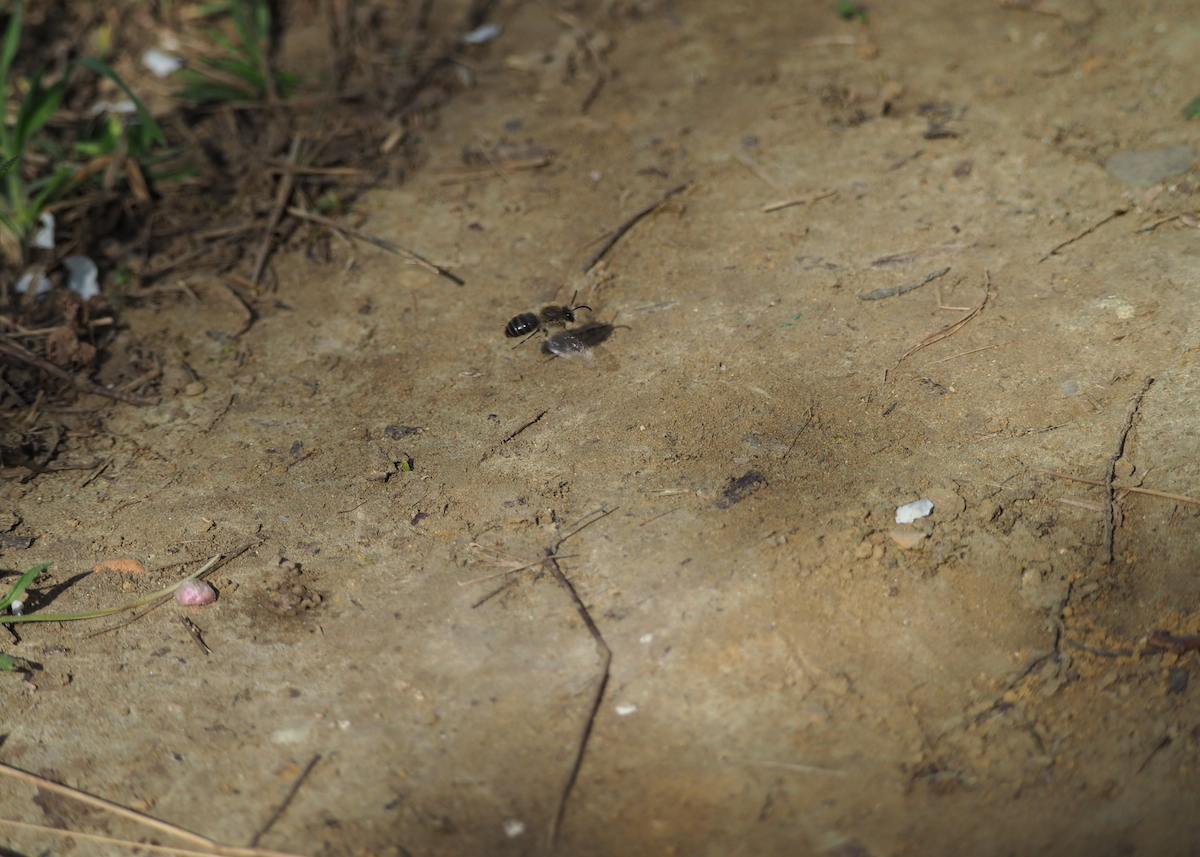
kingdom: Animalia
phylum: Arthropoda
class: Insecta
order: Hymenoptera
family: Colletidae
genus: Colletes
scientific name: Colletes cunicularius
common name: Early colletes
